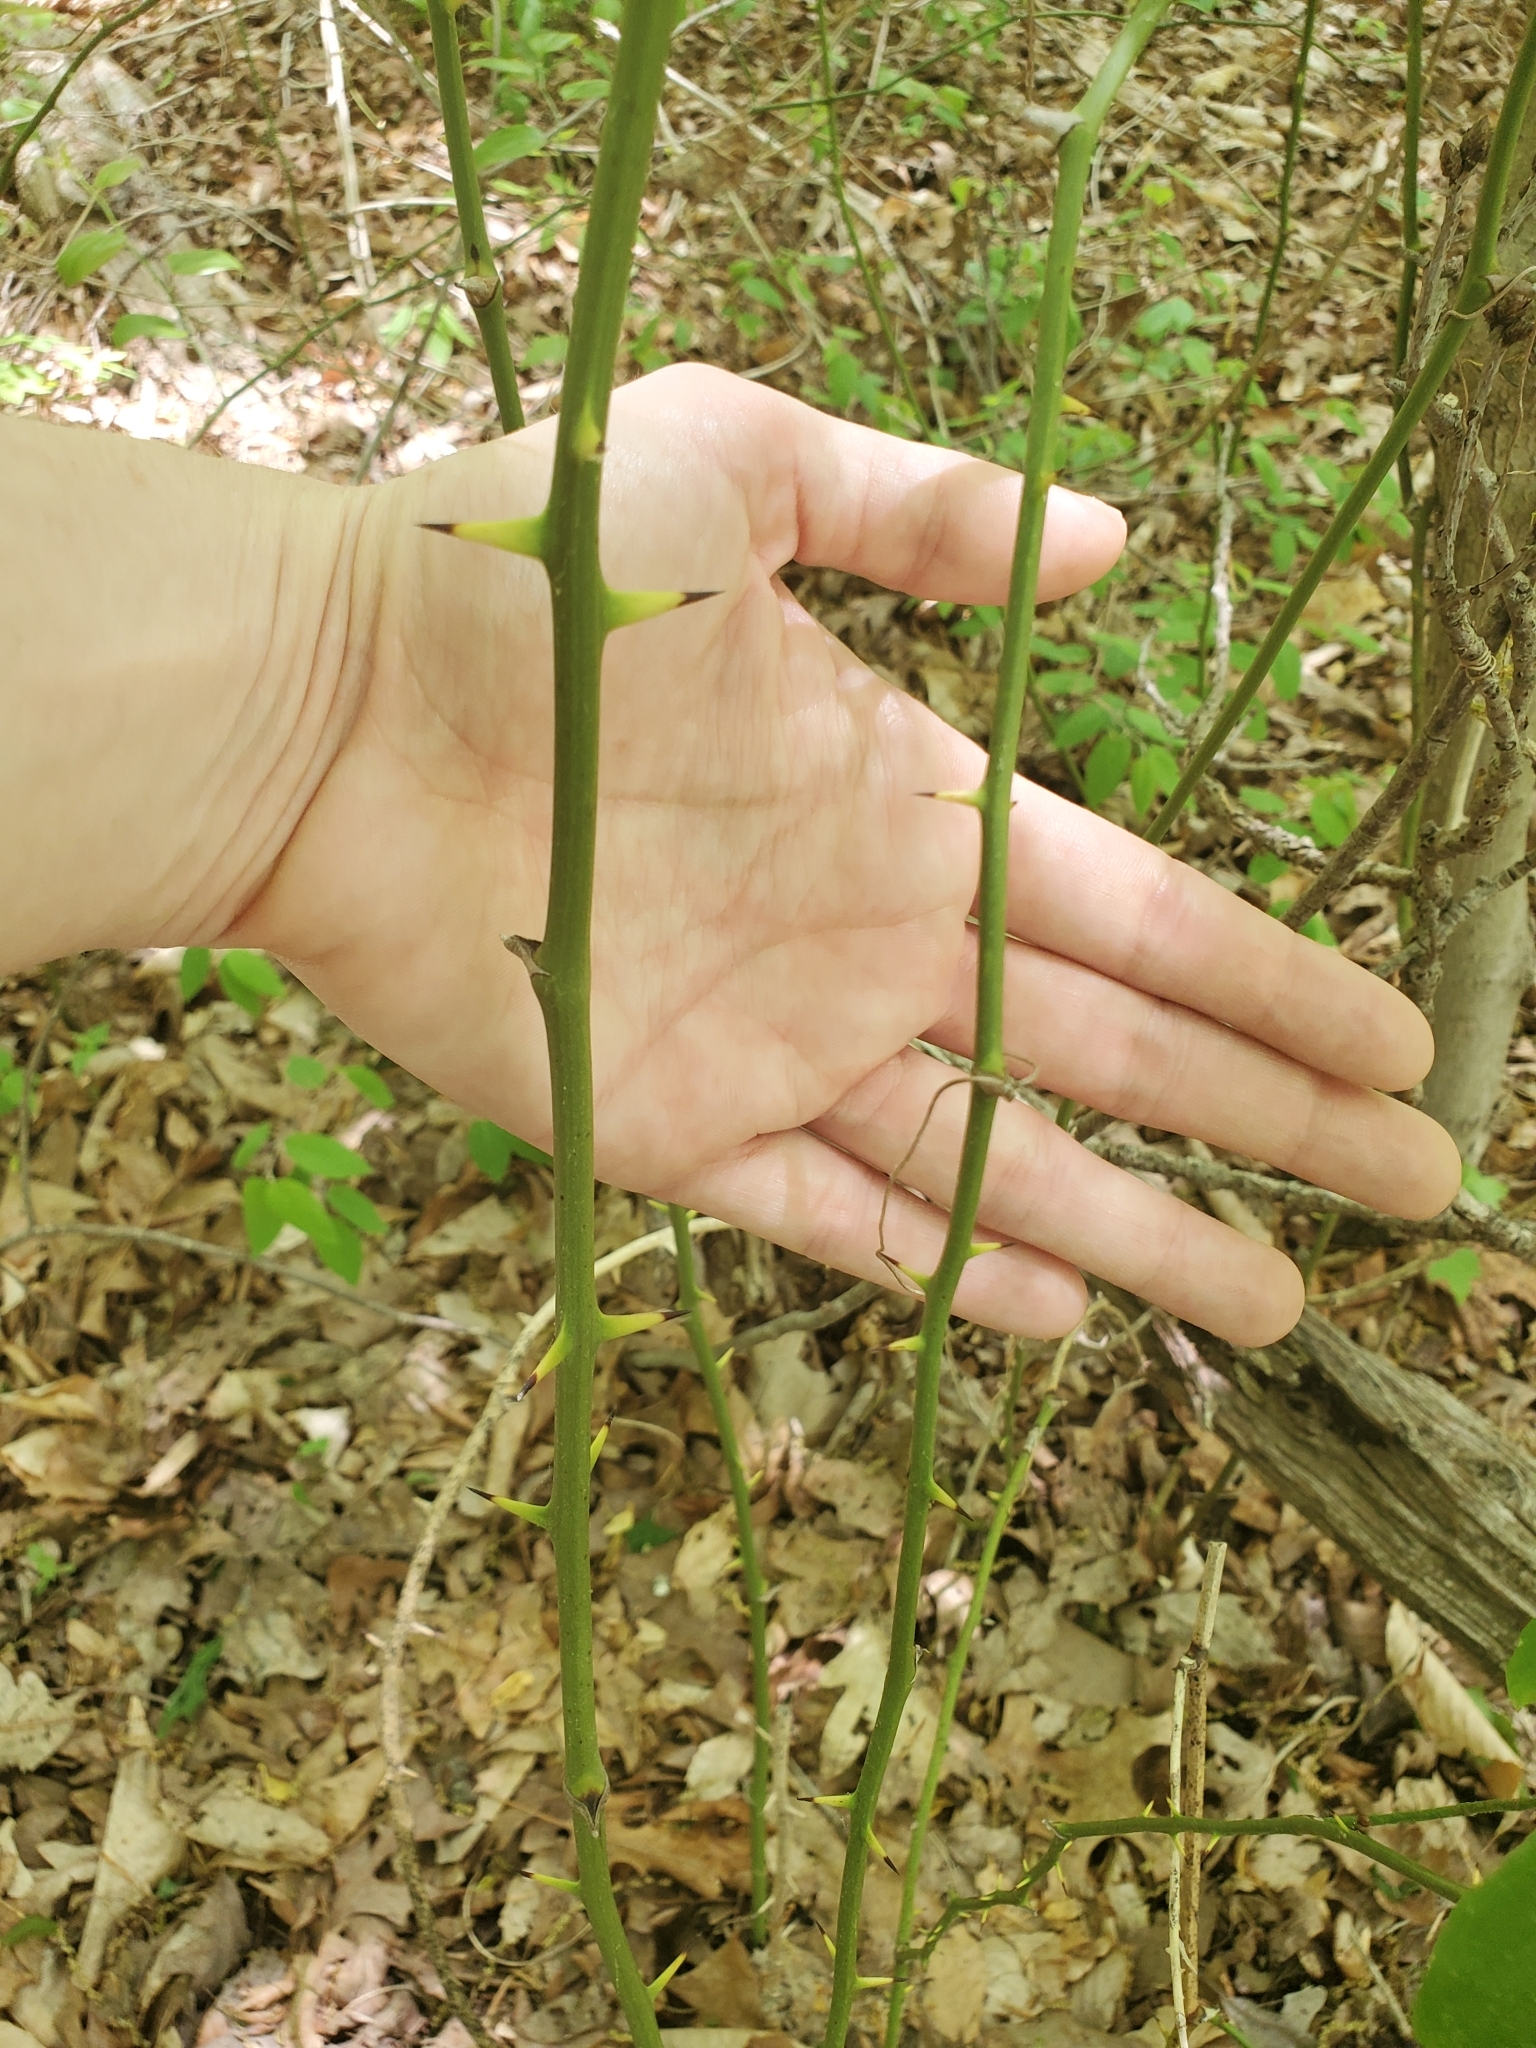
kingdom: Plantae
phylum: Tracheophyta
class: Liliopsida
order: Liliales
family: Smilacaceae
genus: Smilax
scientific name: Smilax rotundifolia
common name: Bullbriar
